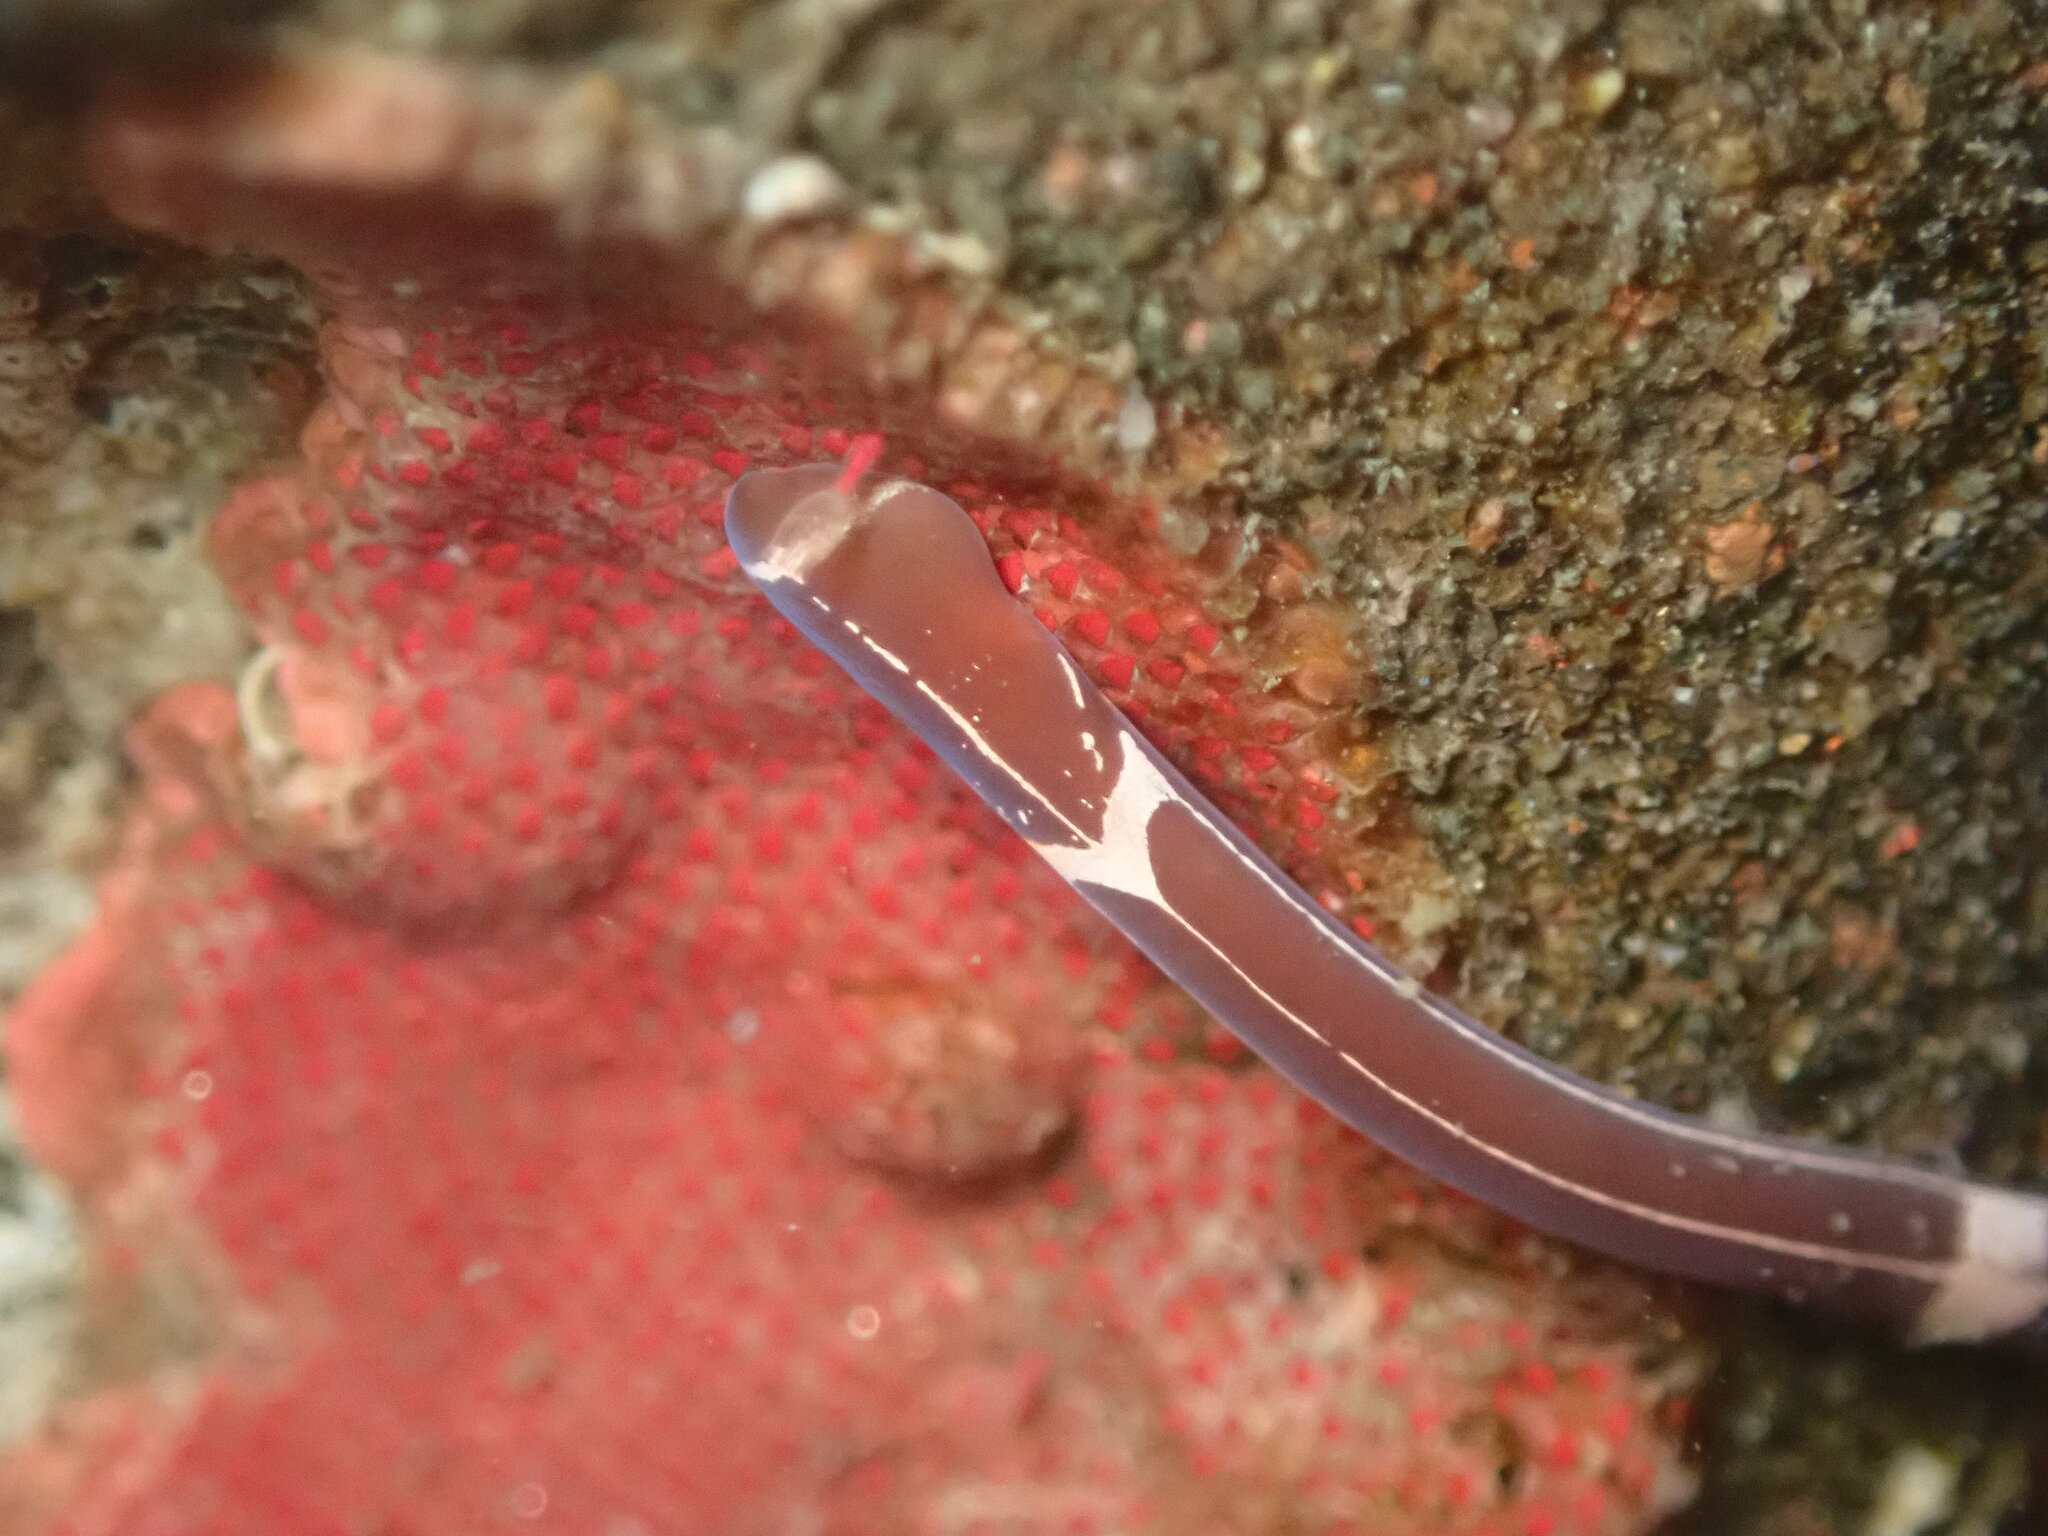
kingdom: Animalia
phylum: Nemertea
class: Palaeonemertea
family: Tubulanidae
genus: Tubulanus
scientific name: Tubulanus sexlineatus
